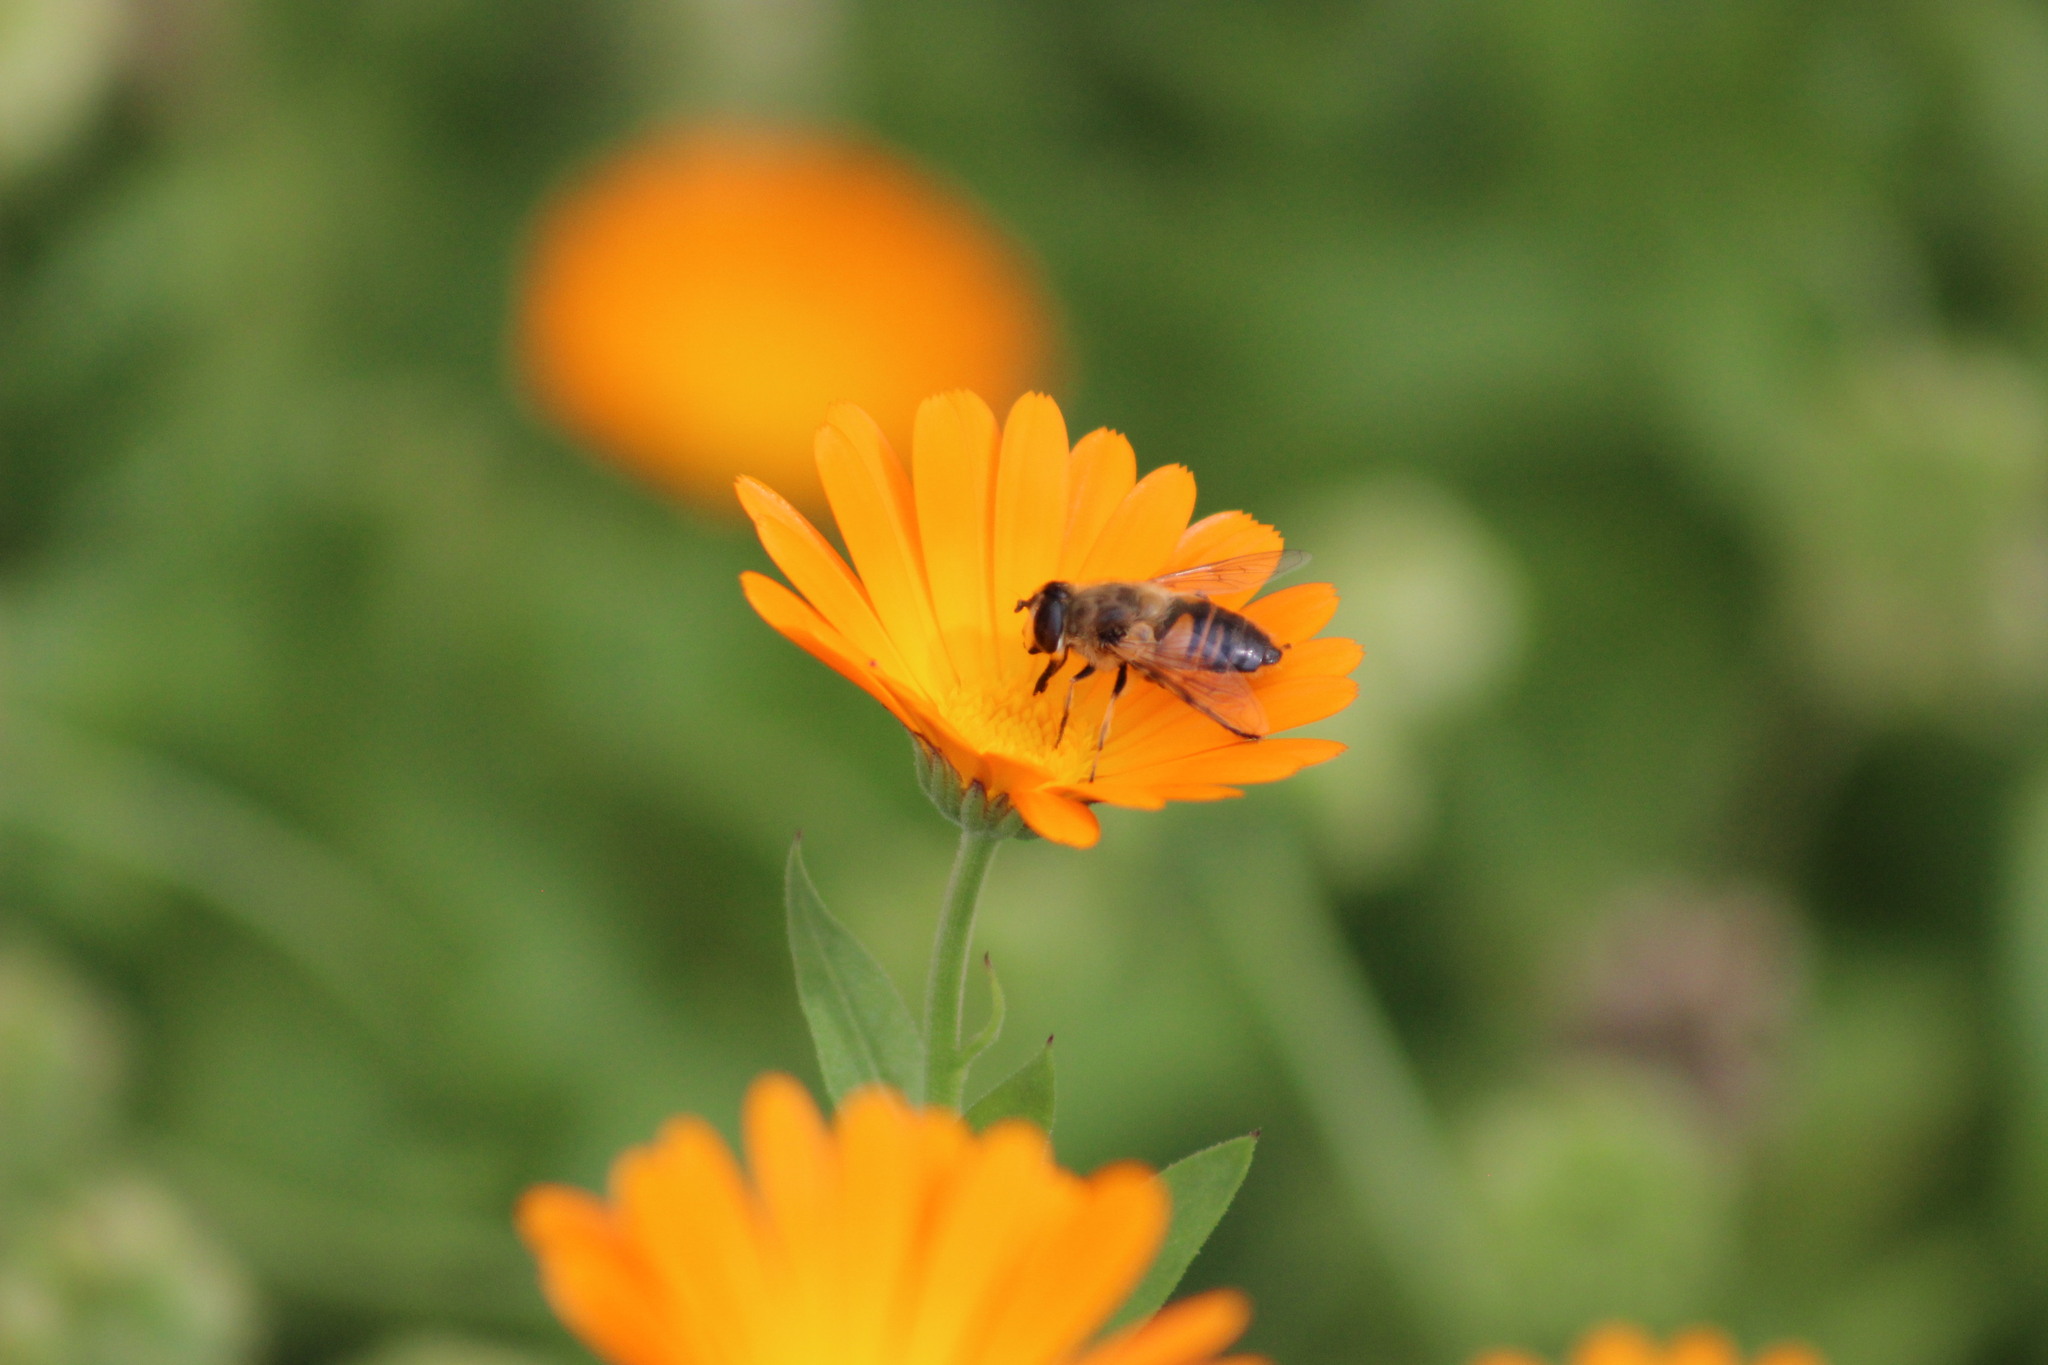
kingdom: Animalia
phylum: Arthropoda
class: Insecta
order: Diptera
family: Syrphidae
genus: Eristalis
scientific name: Eristalis tenax
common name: Drone fly
